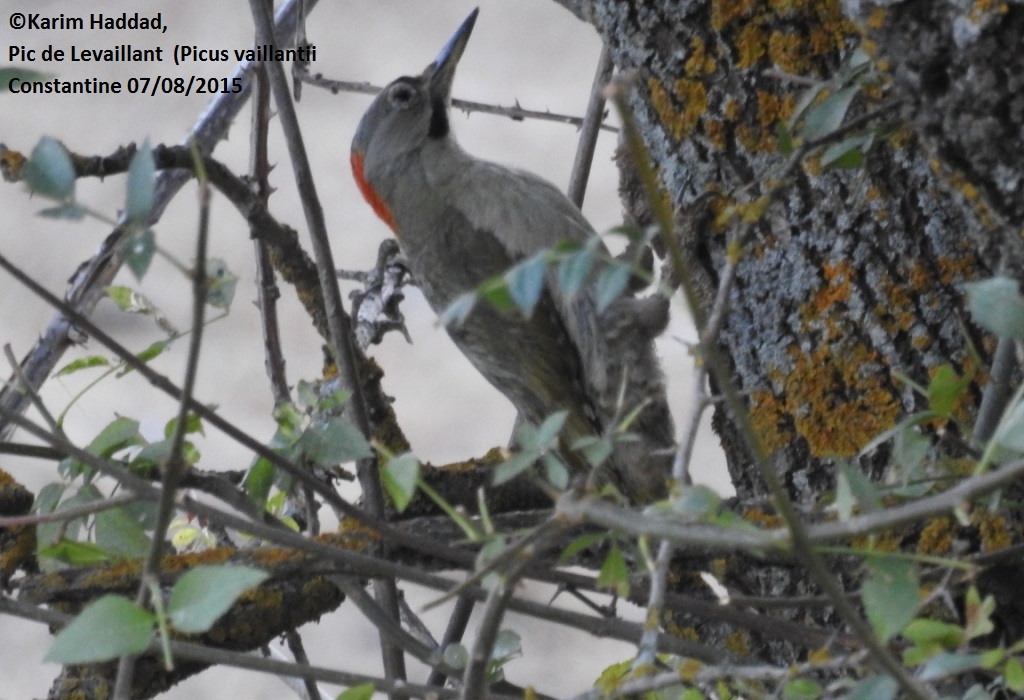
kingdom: Animalia
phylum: Chordata
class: Aves
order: Piciformes
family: Picidae
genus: Picus
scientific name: Picus vaillantii
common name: Levaillant's woodpecker
